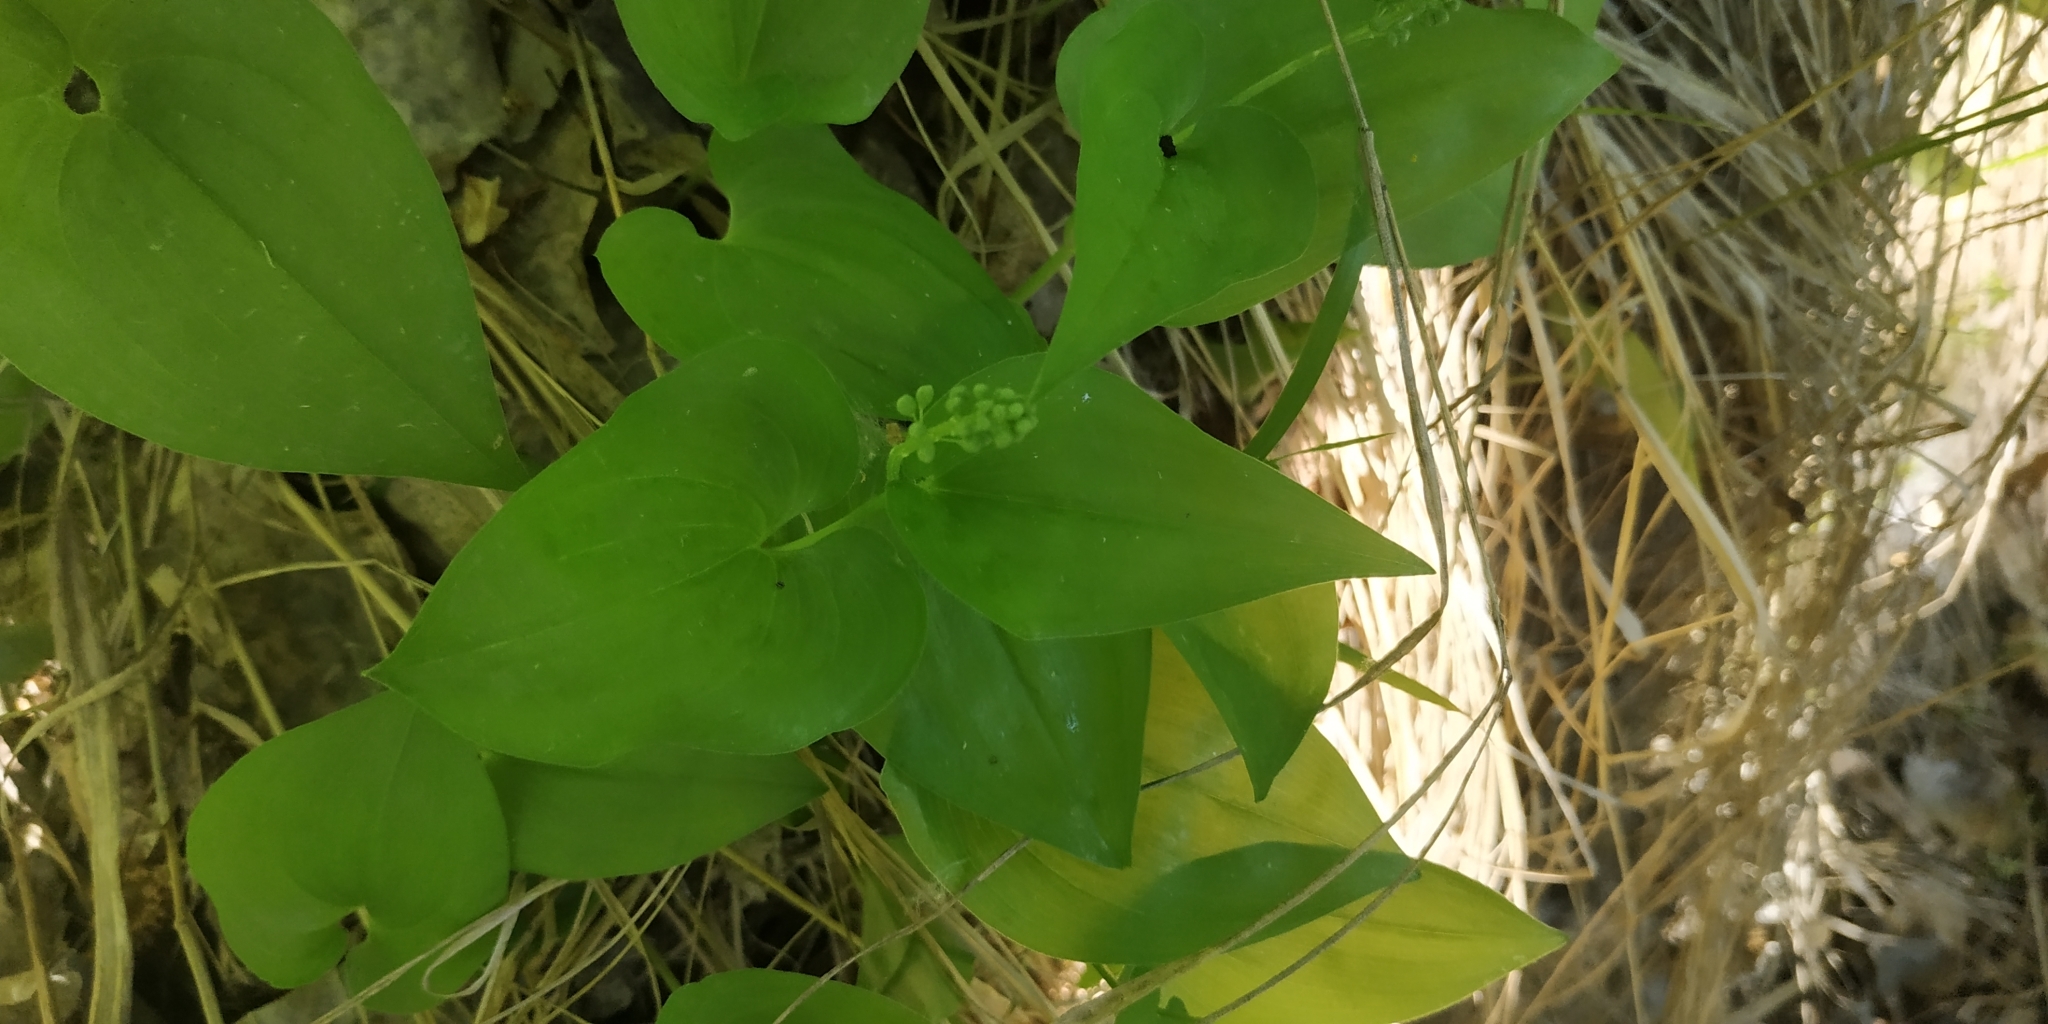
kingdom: Plantae
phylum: Tracheophyta
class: Liliopsida
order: Asparagales
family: Asparagaceae
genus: Maianthemum
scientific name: Maianthemum bifolium
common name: May lily
